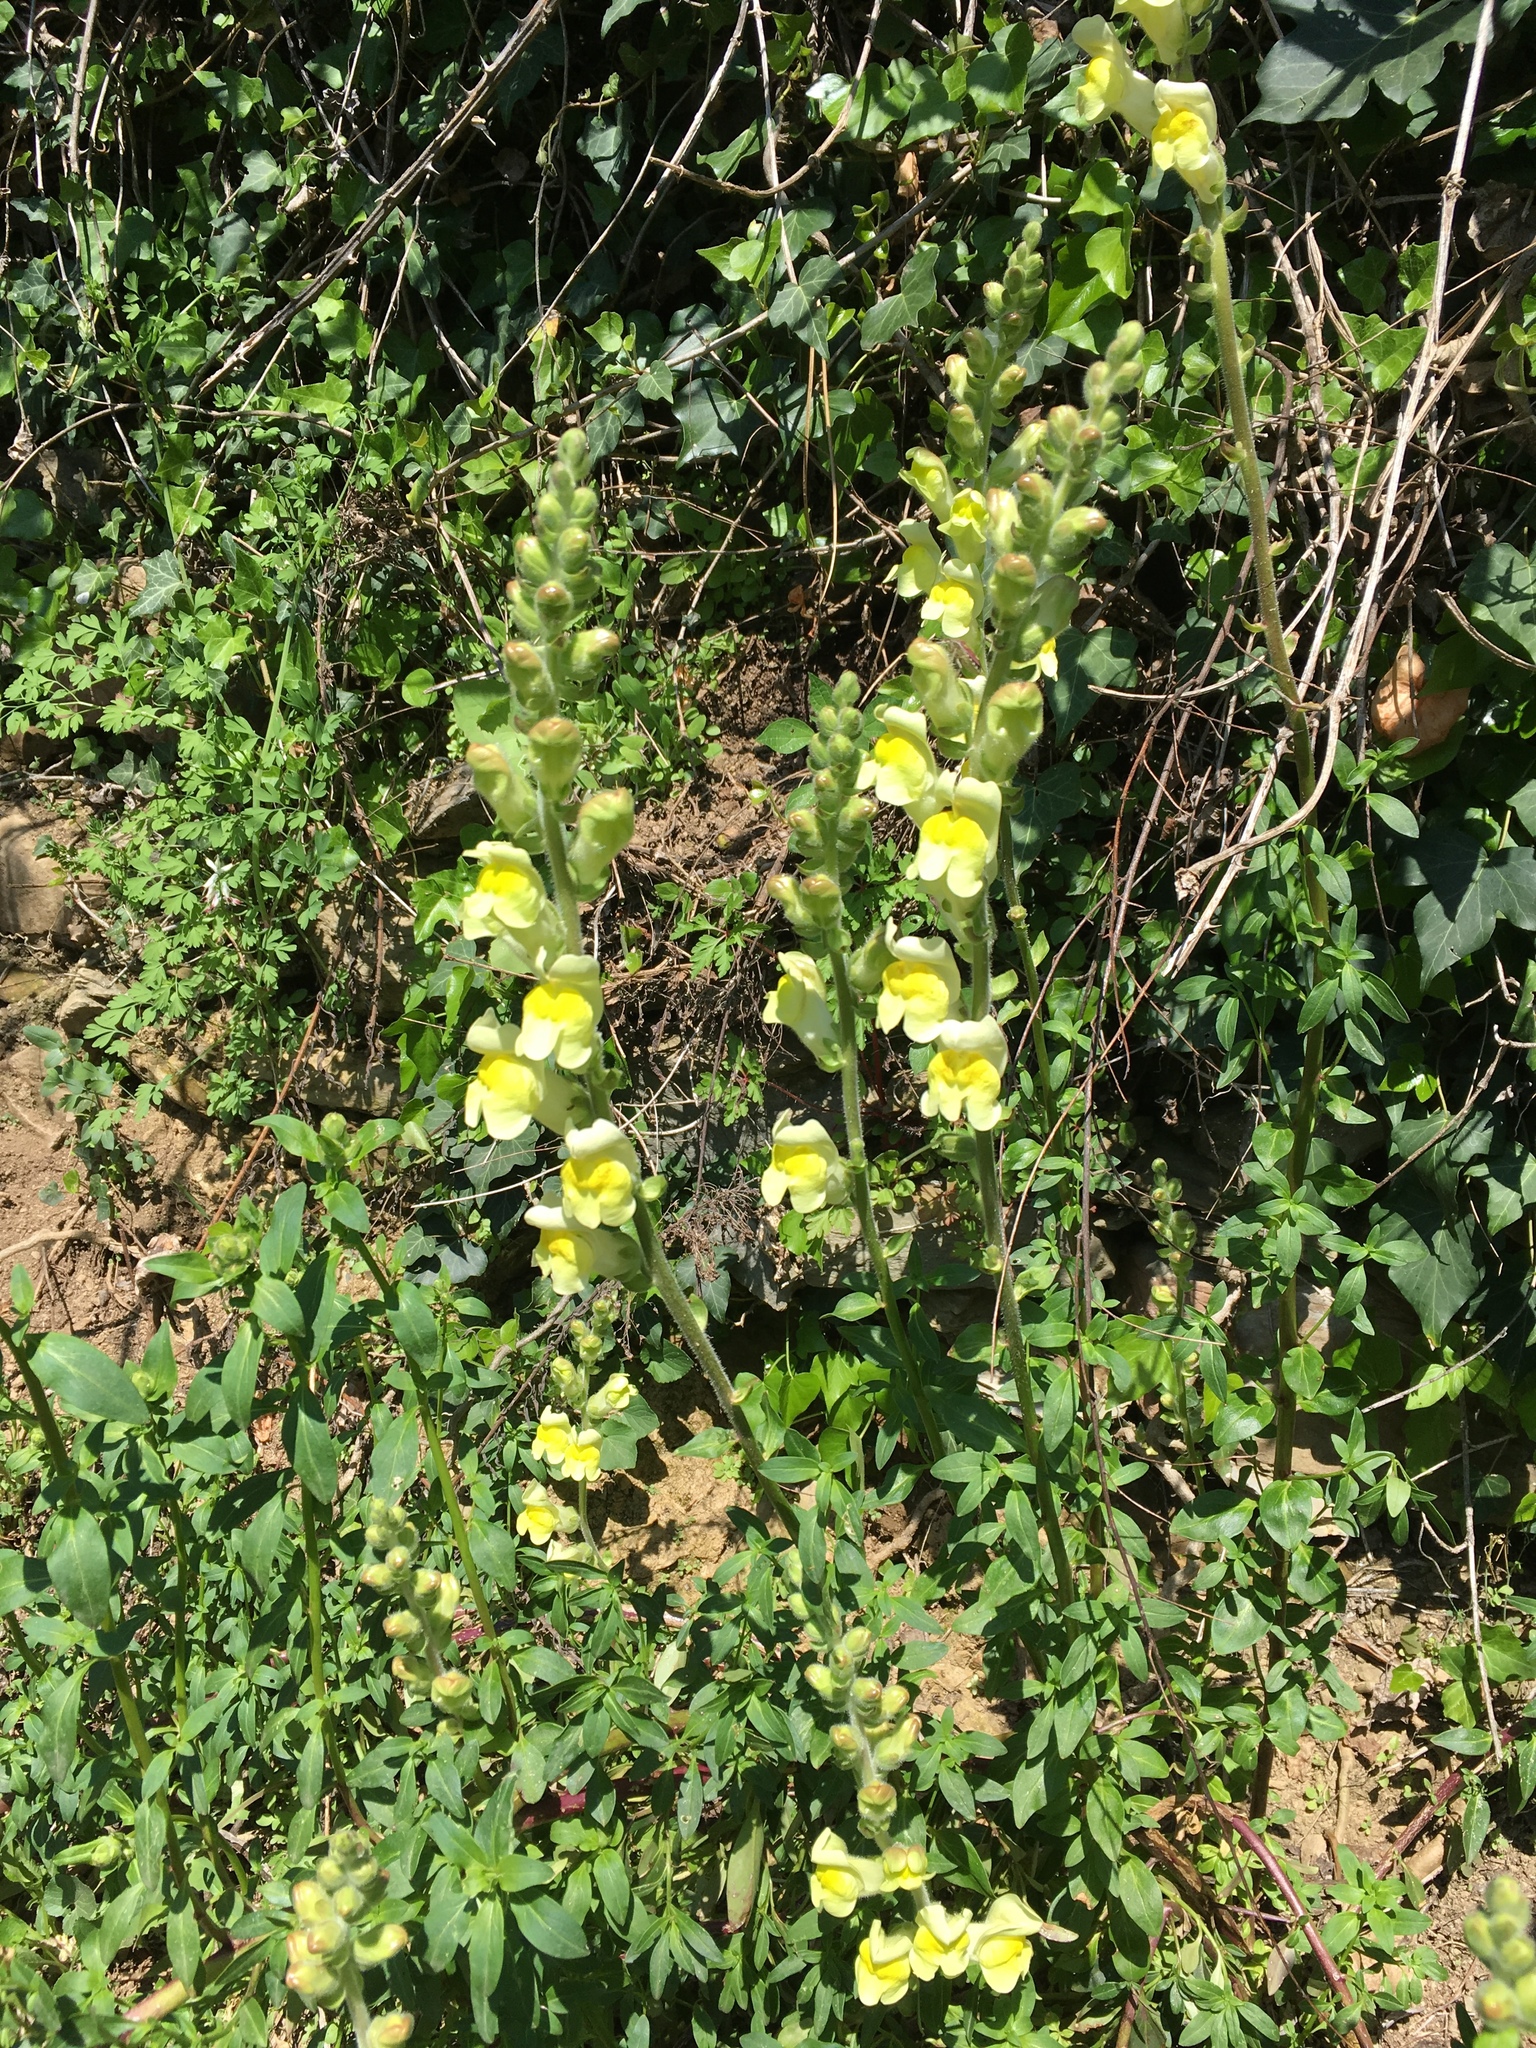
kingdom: Plantae
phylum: Tracheophyta
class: Magnoliopsida
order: Lamiales
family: Plantaginaceae
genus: Antirrhinum
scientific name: Antirrhinum majus
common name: Snapdragon
